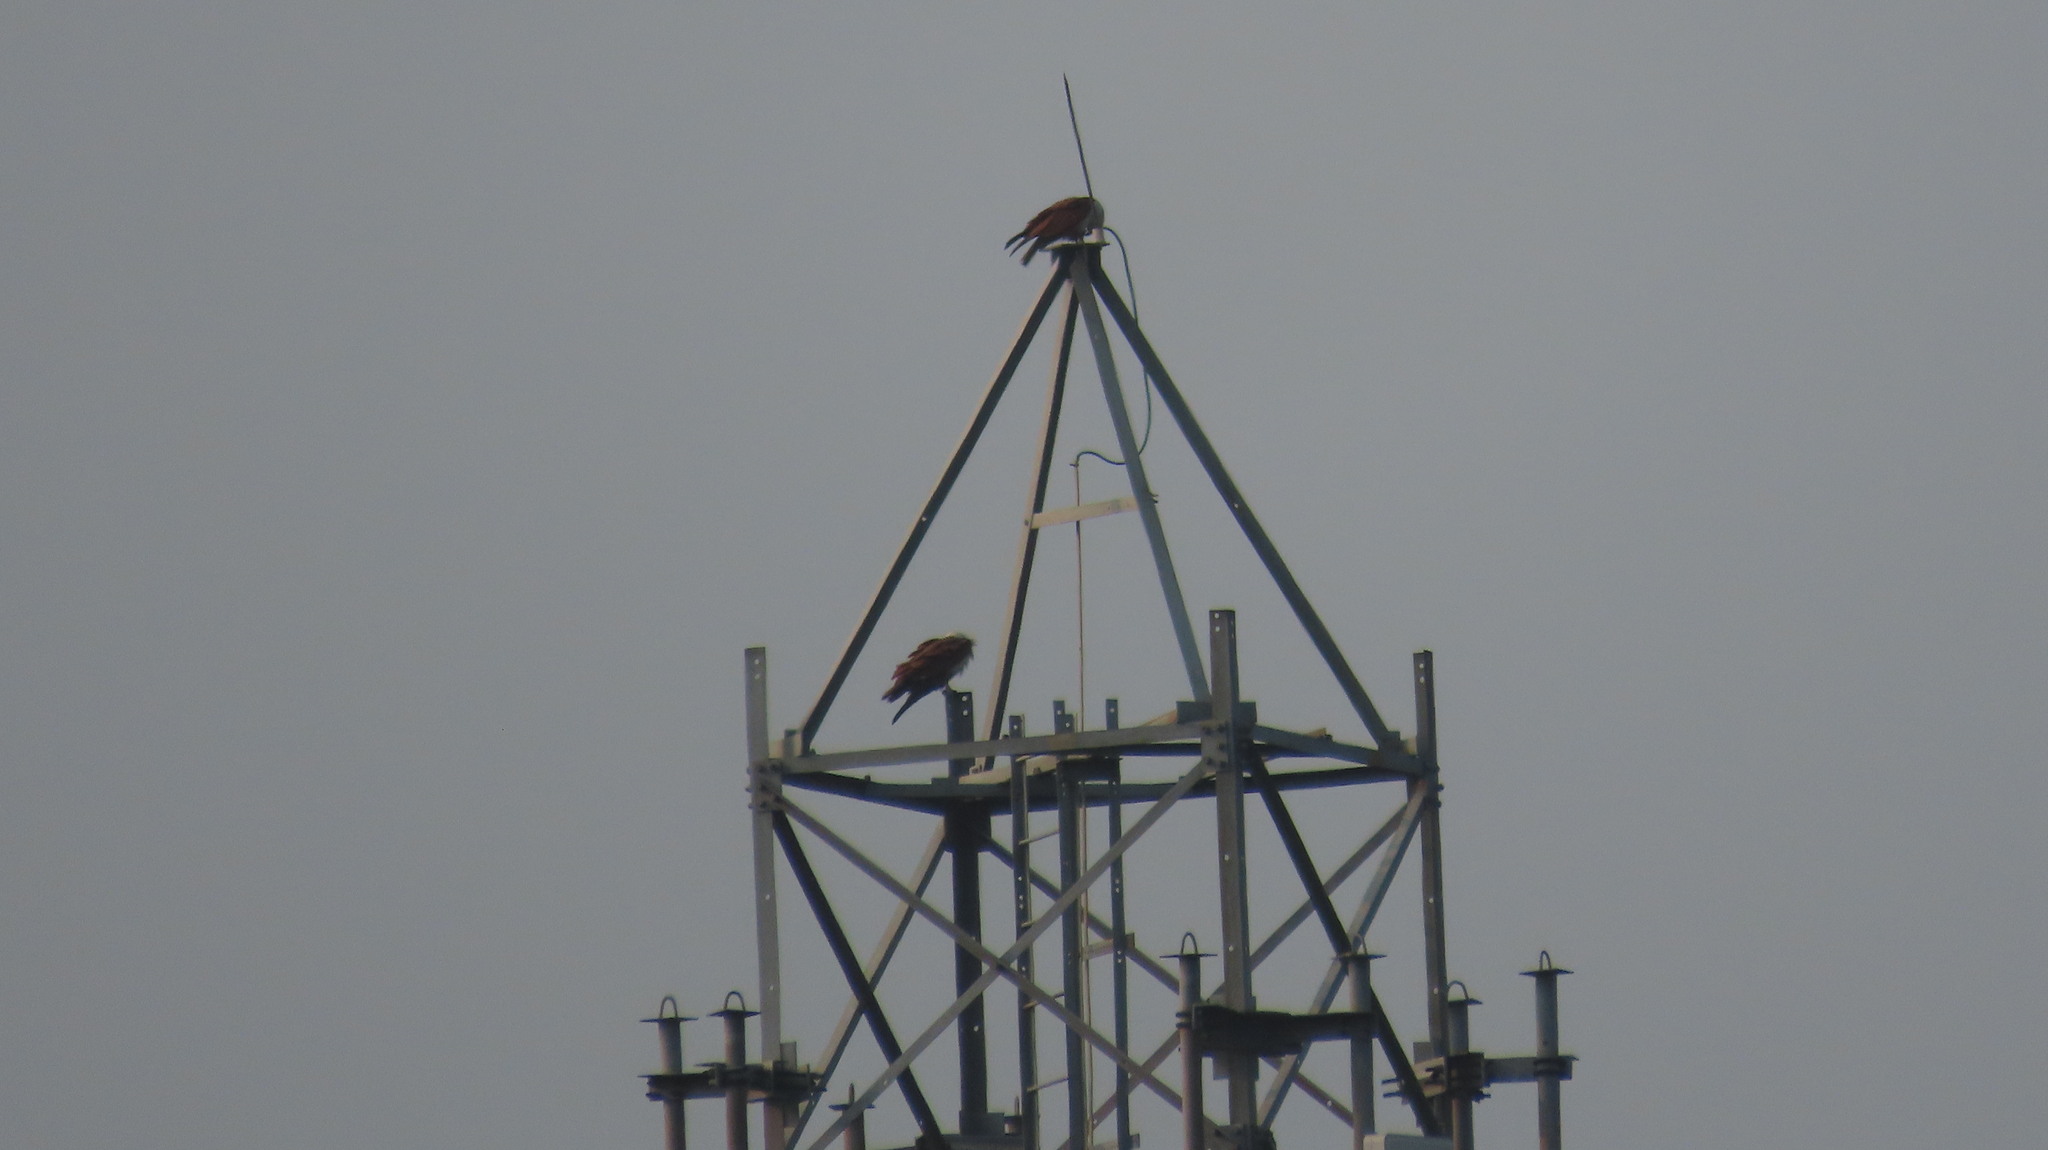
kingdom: Animalia
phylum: Chordata
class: Aves
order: Accipitriformes
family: Accipitridae
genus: Haliastur
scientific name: Haliastur indus
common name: Brahminy kite
